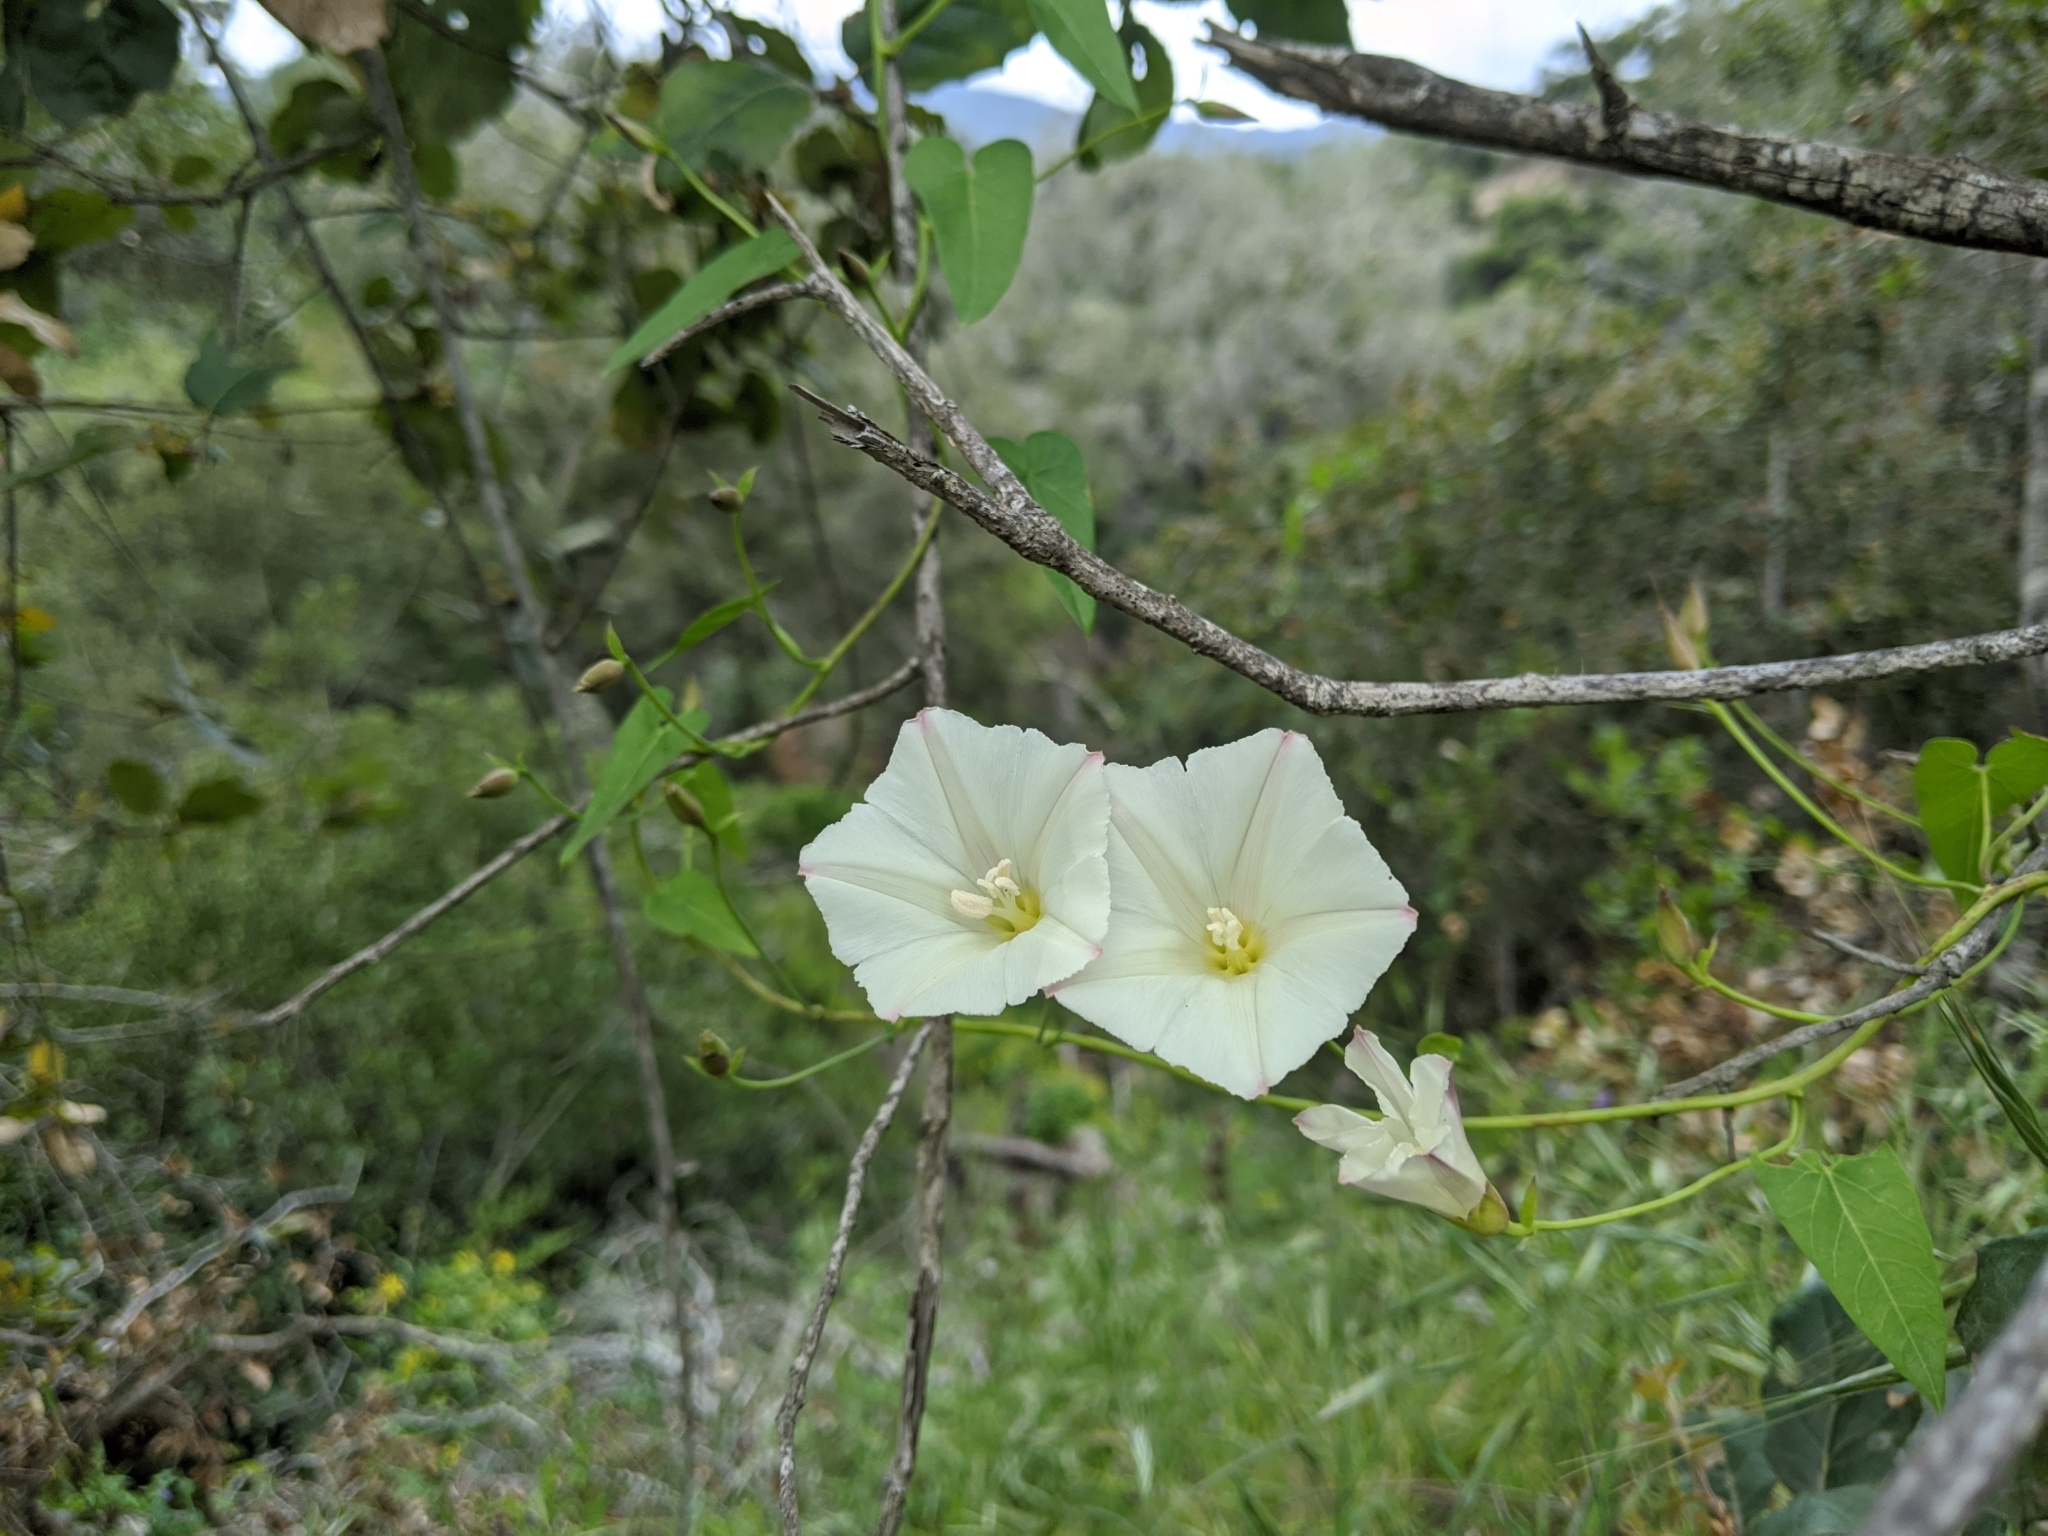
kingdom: Plantae
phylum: Tracheophyta
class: Magnoliopsida
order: Solanales
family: Convolvulaceae
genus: Calystegia
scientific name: Calystegia purpurata
